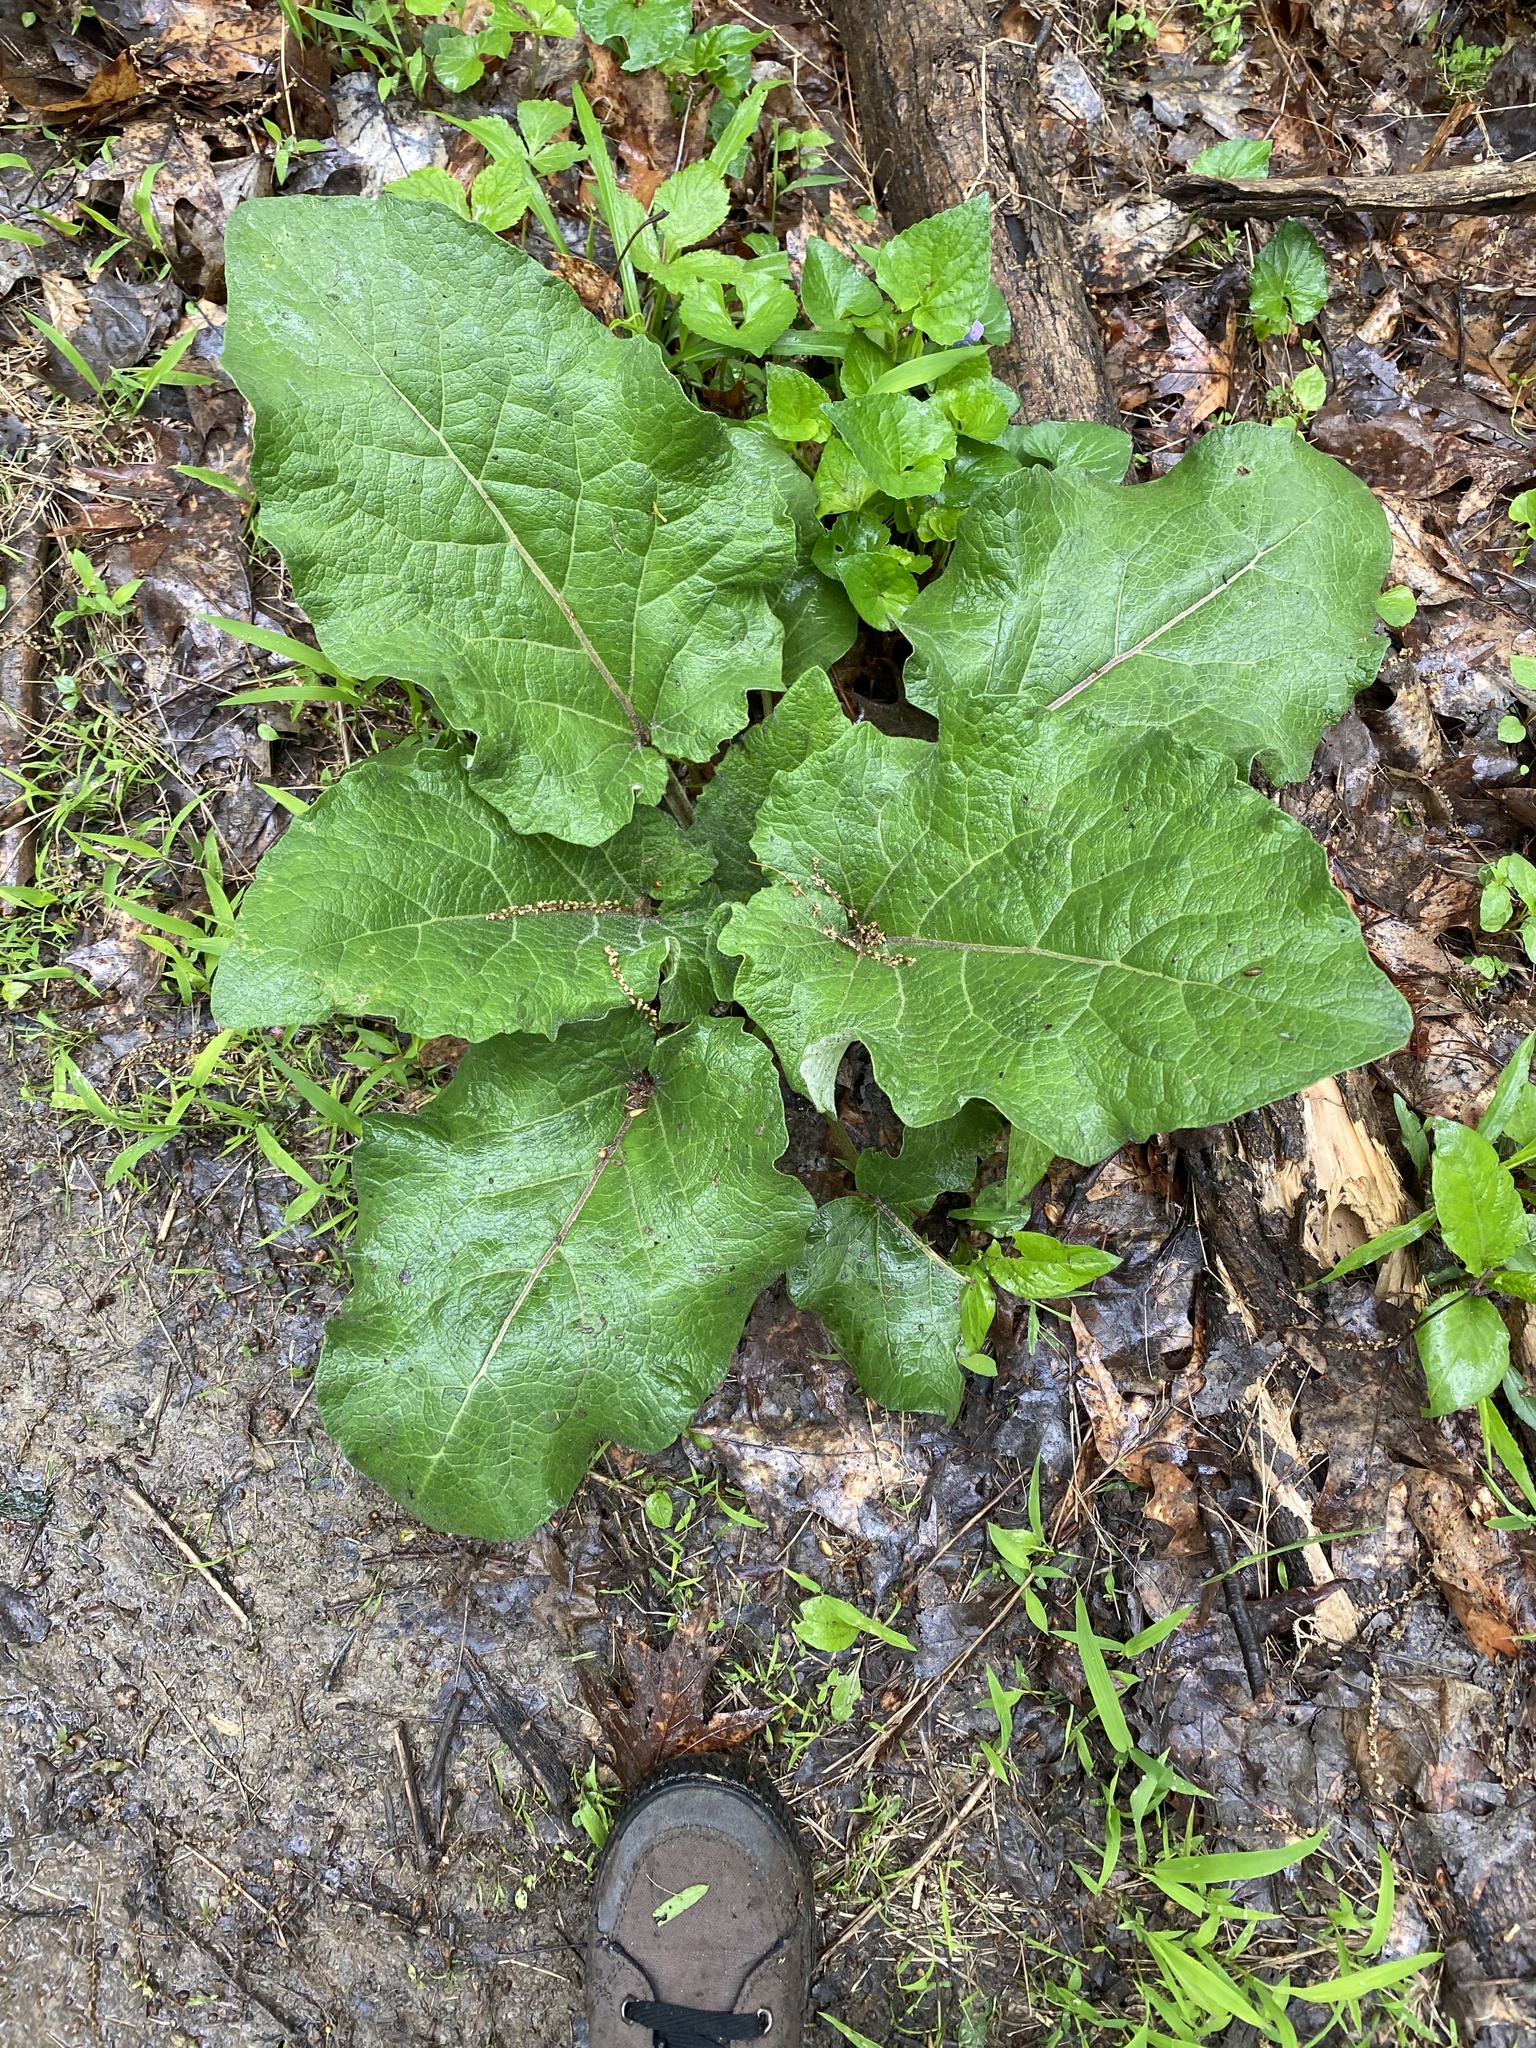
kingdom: Plantae
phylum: Tracheophyta
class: Magnoliopsida
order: Asterales
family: Asteraceae
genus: Arctium
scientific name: Arctium
